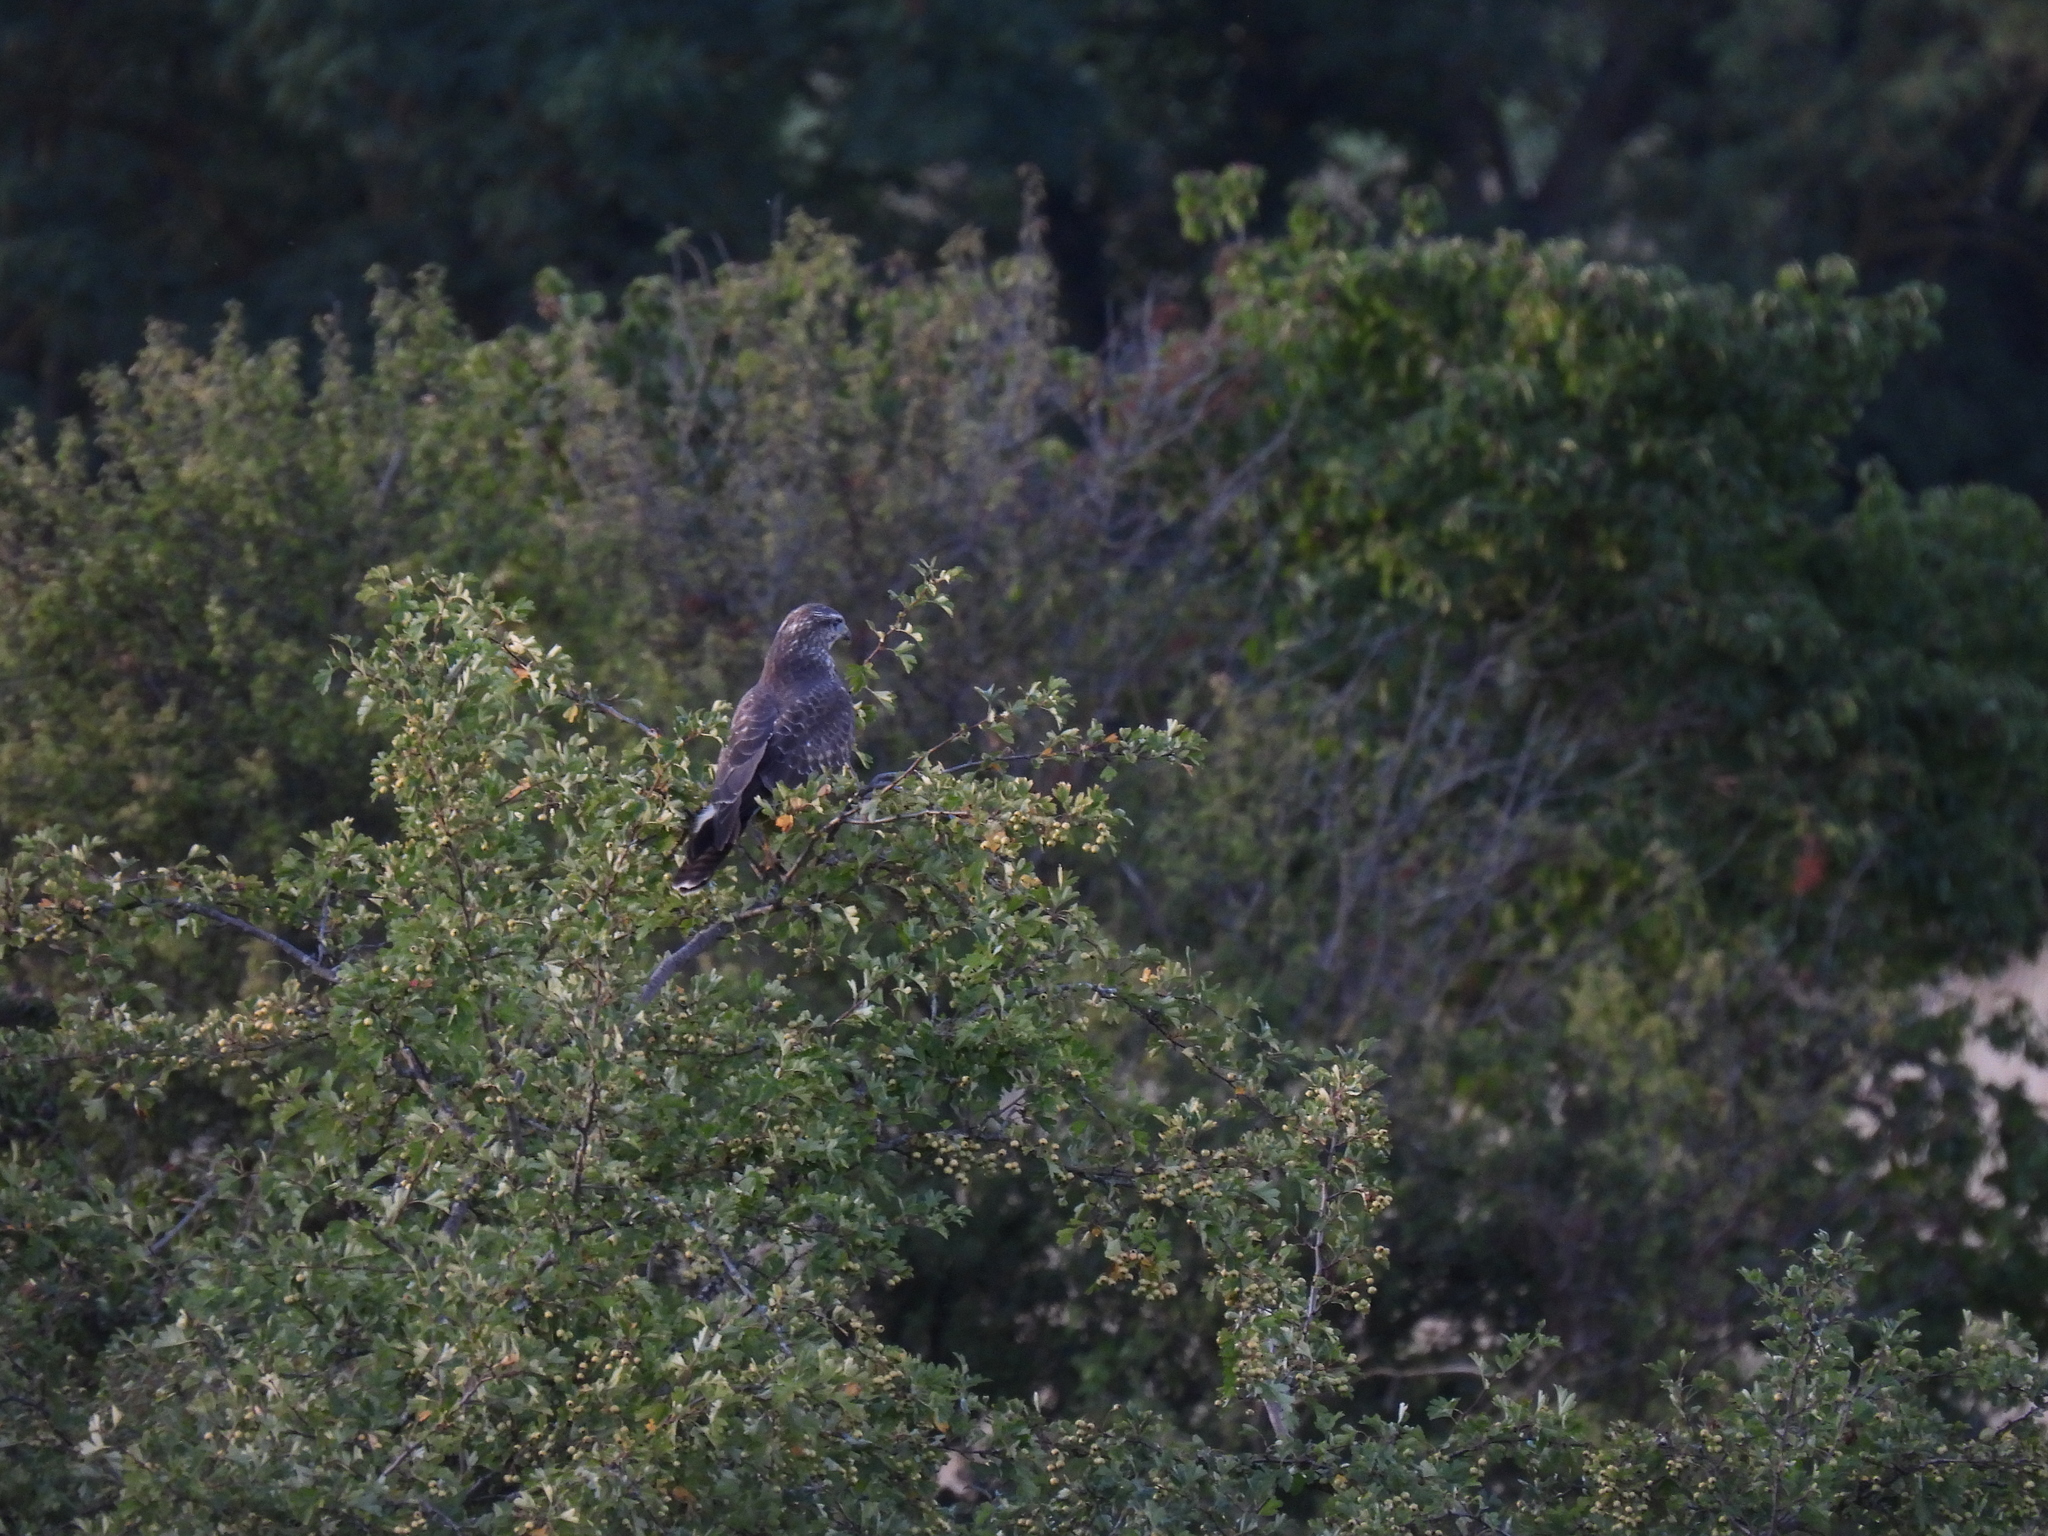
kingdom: Animalia
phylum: Chordata
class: Aves
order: Accipitriformes
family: Accipitridae
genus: Buteo
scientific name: Buteo buteo
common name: Common buzzard
